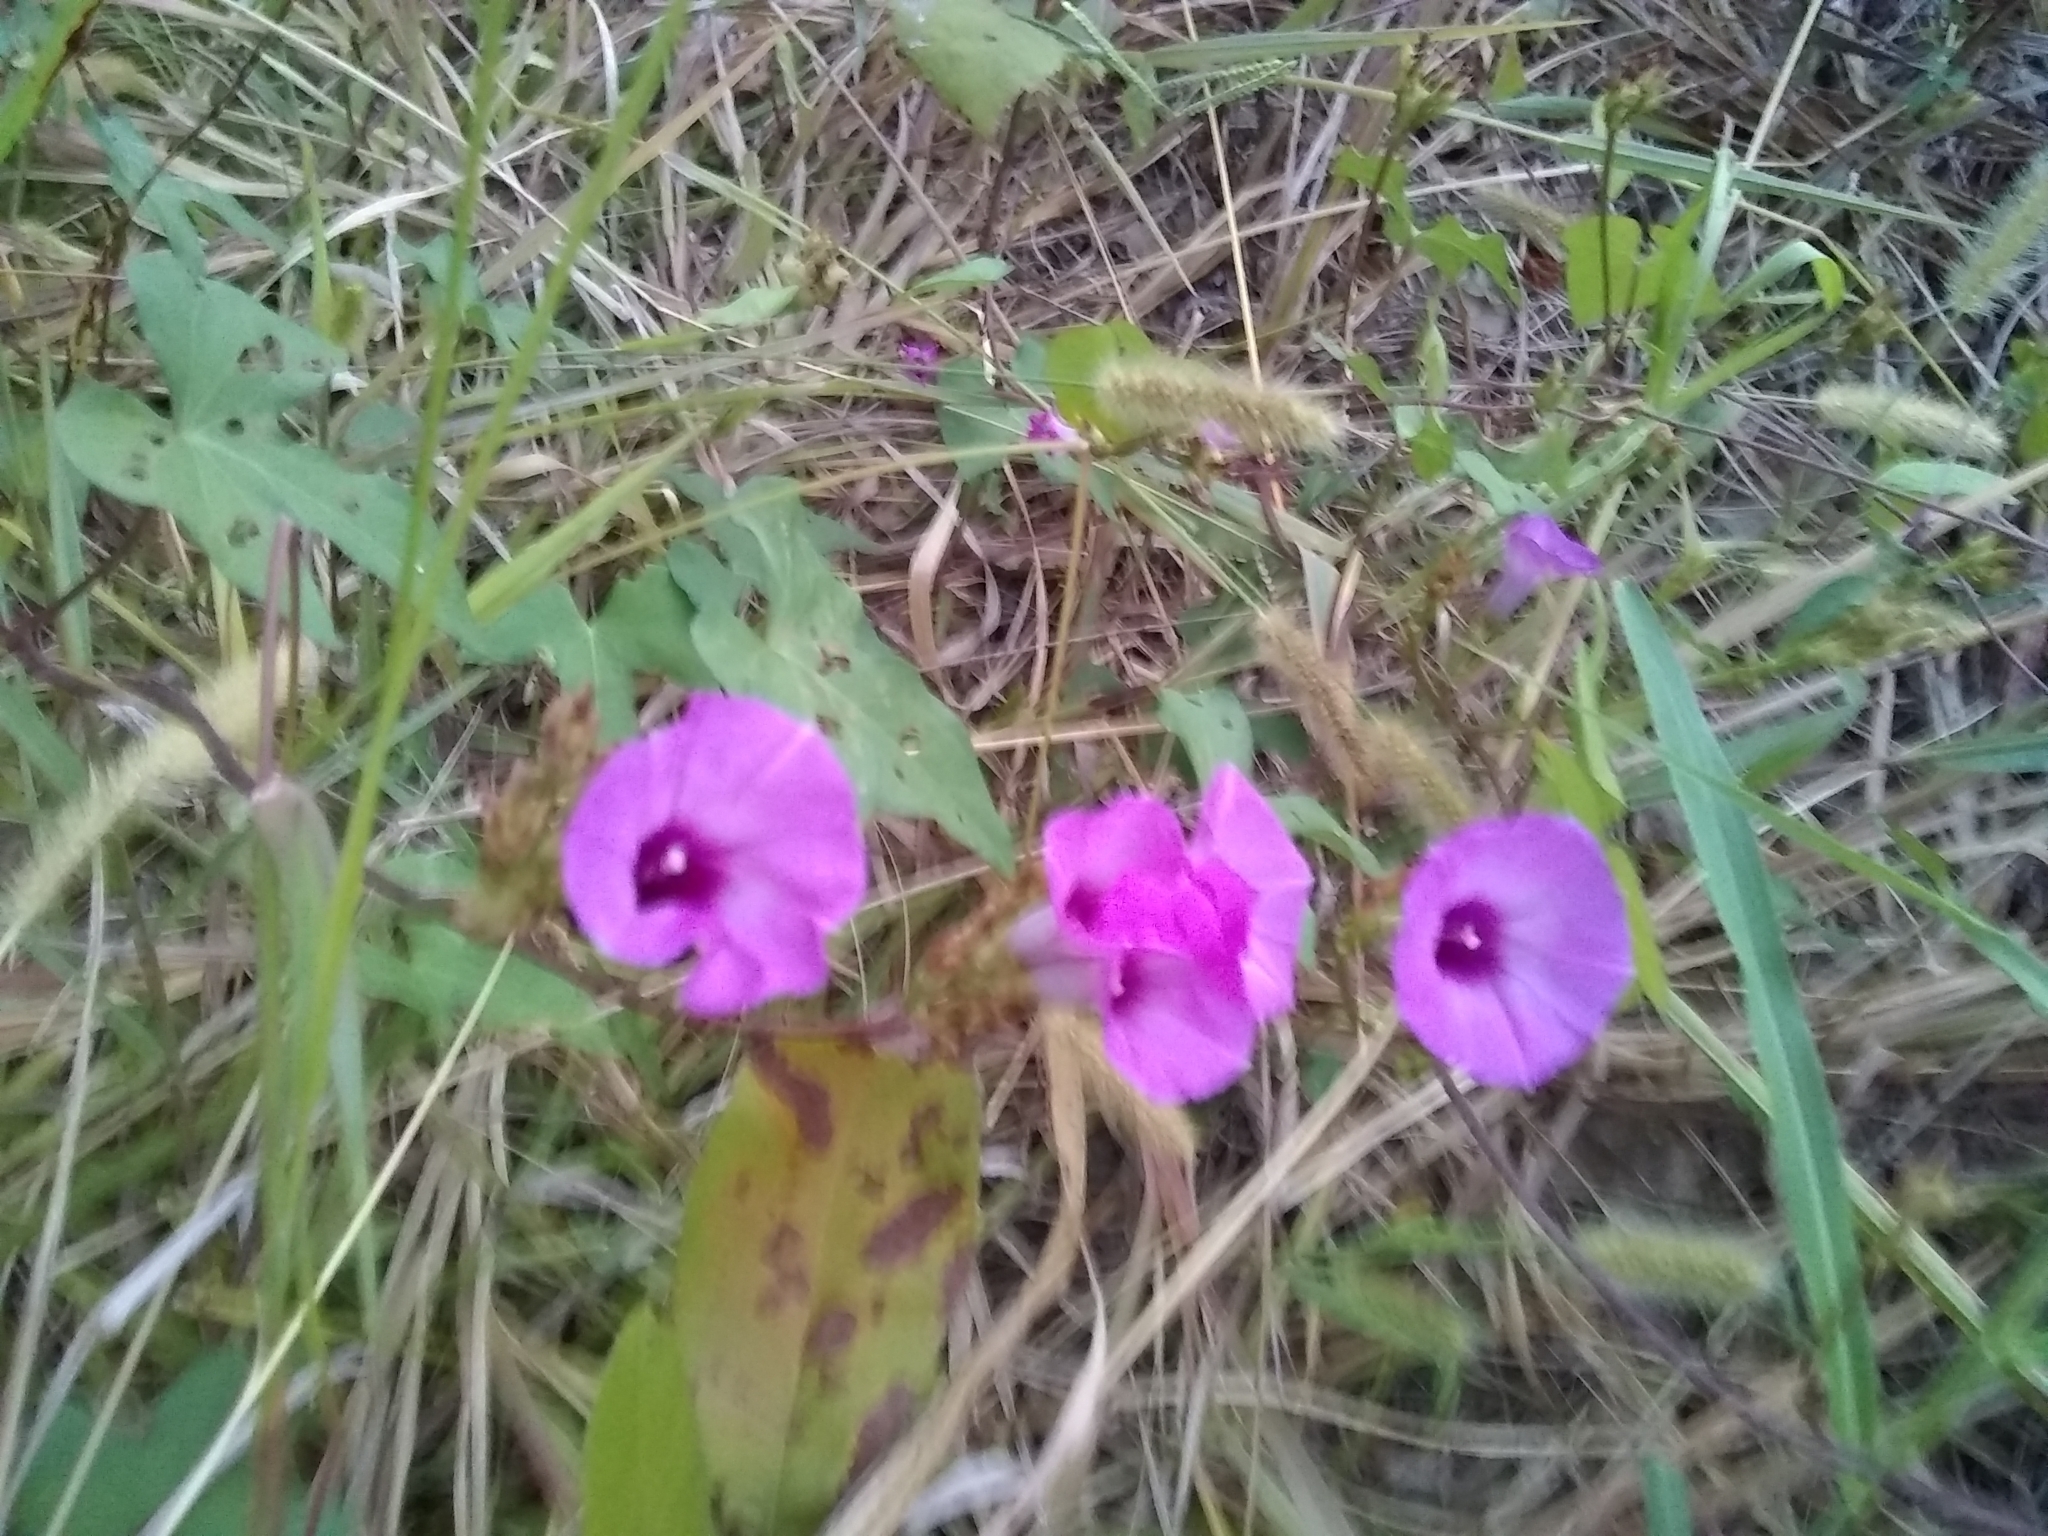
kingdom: Plantae
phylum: Tracheophyta
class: Magnoliopsida
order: Solanales
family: Convolvulaceae
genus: Ipomoea
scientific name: Ipomoea cordatotriloba
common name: Cotton morning glory
